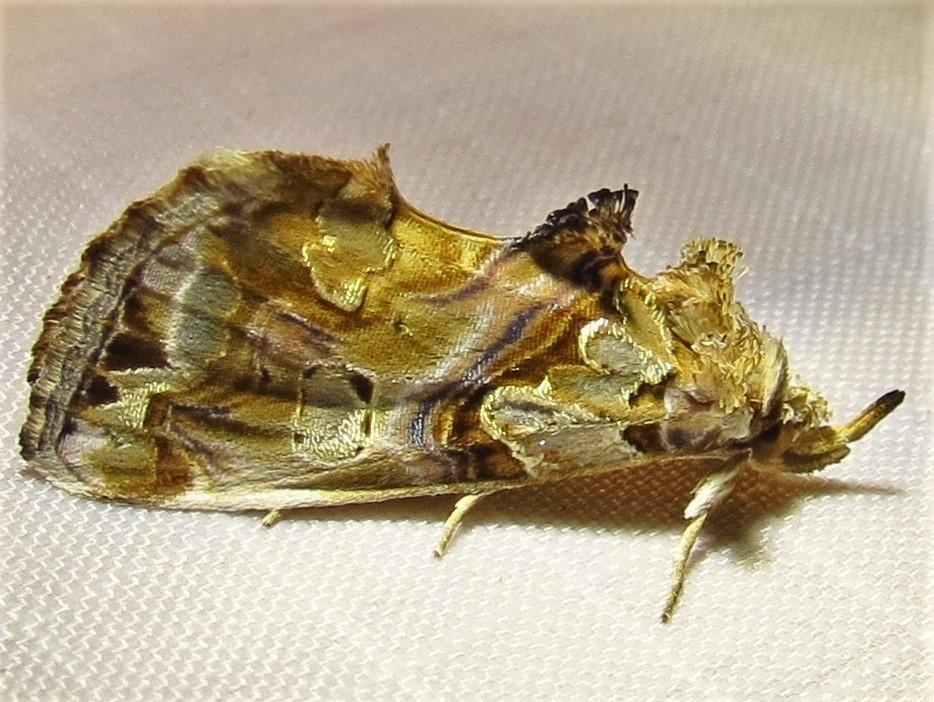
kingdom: Animalia
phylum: Arthropoda
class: Insecta
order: Lepidoptera
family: Erebidae
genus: Plusiodonta
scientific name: Plusiodonta compressipalpis
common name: Moonseed moth
